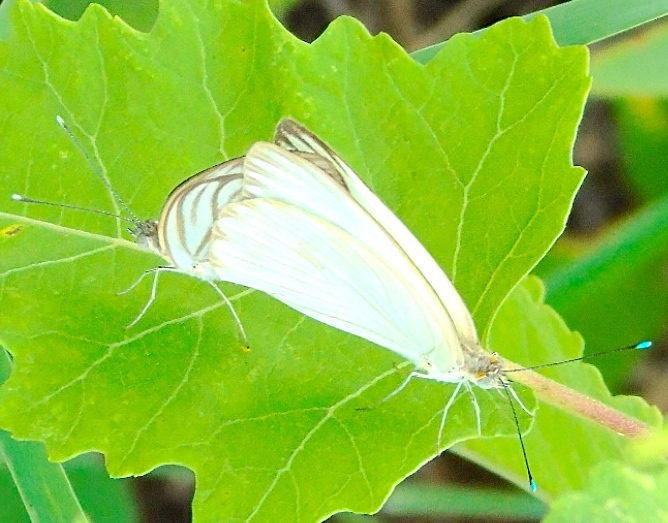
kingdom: Animalia
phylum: Arthropoda
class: Insecta
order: Lepidoptera
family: Pieridae
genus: Ascia
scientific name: Ascia monuste
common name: Great southern white
